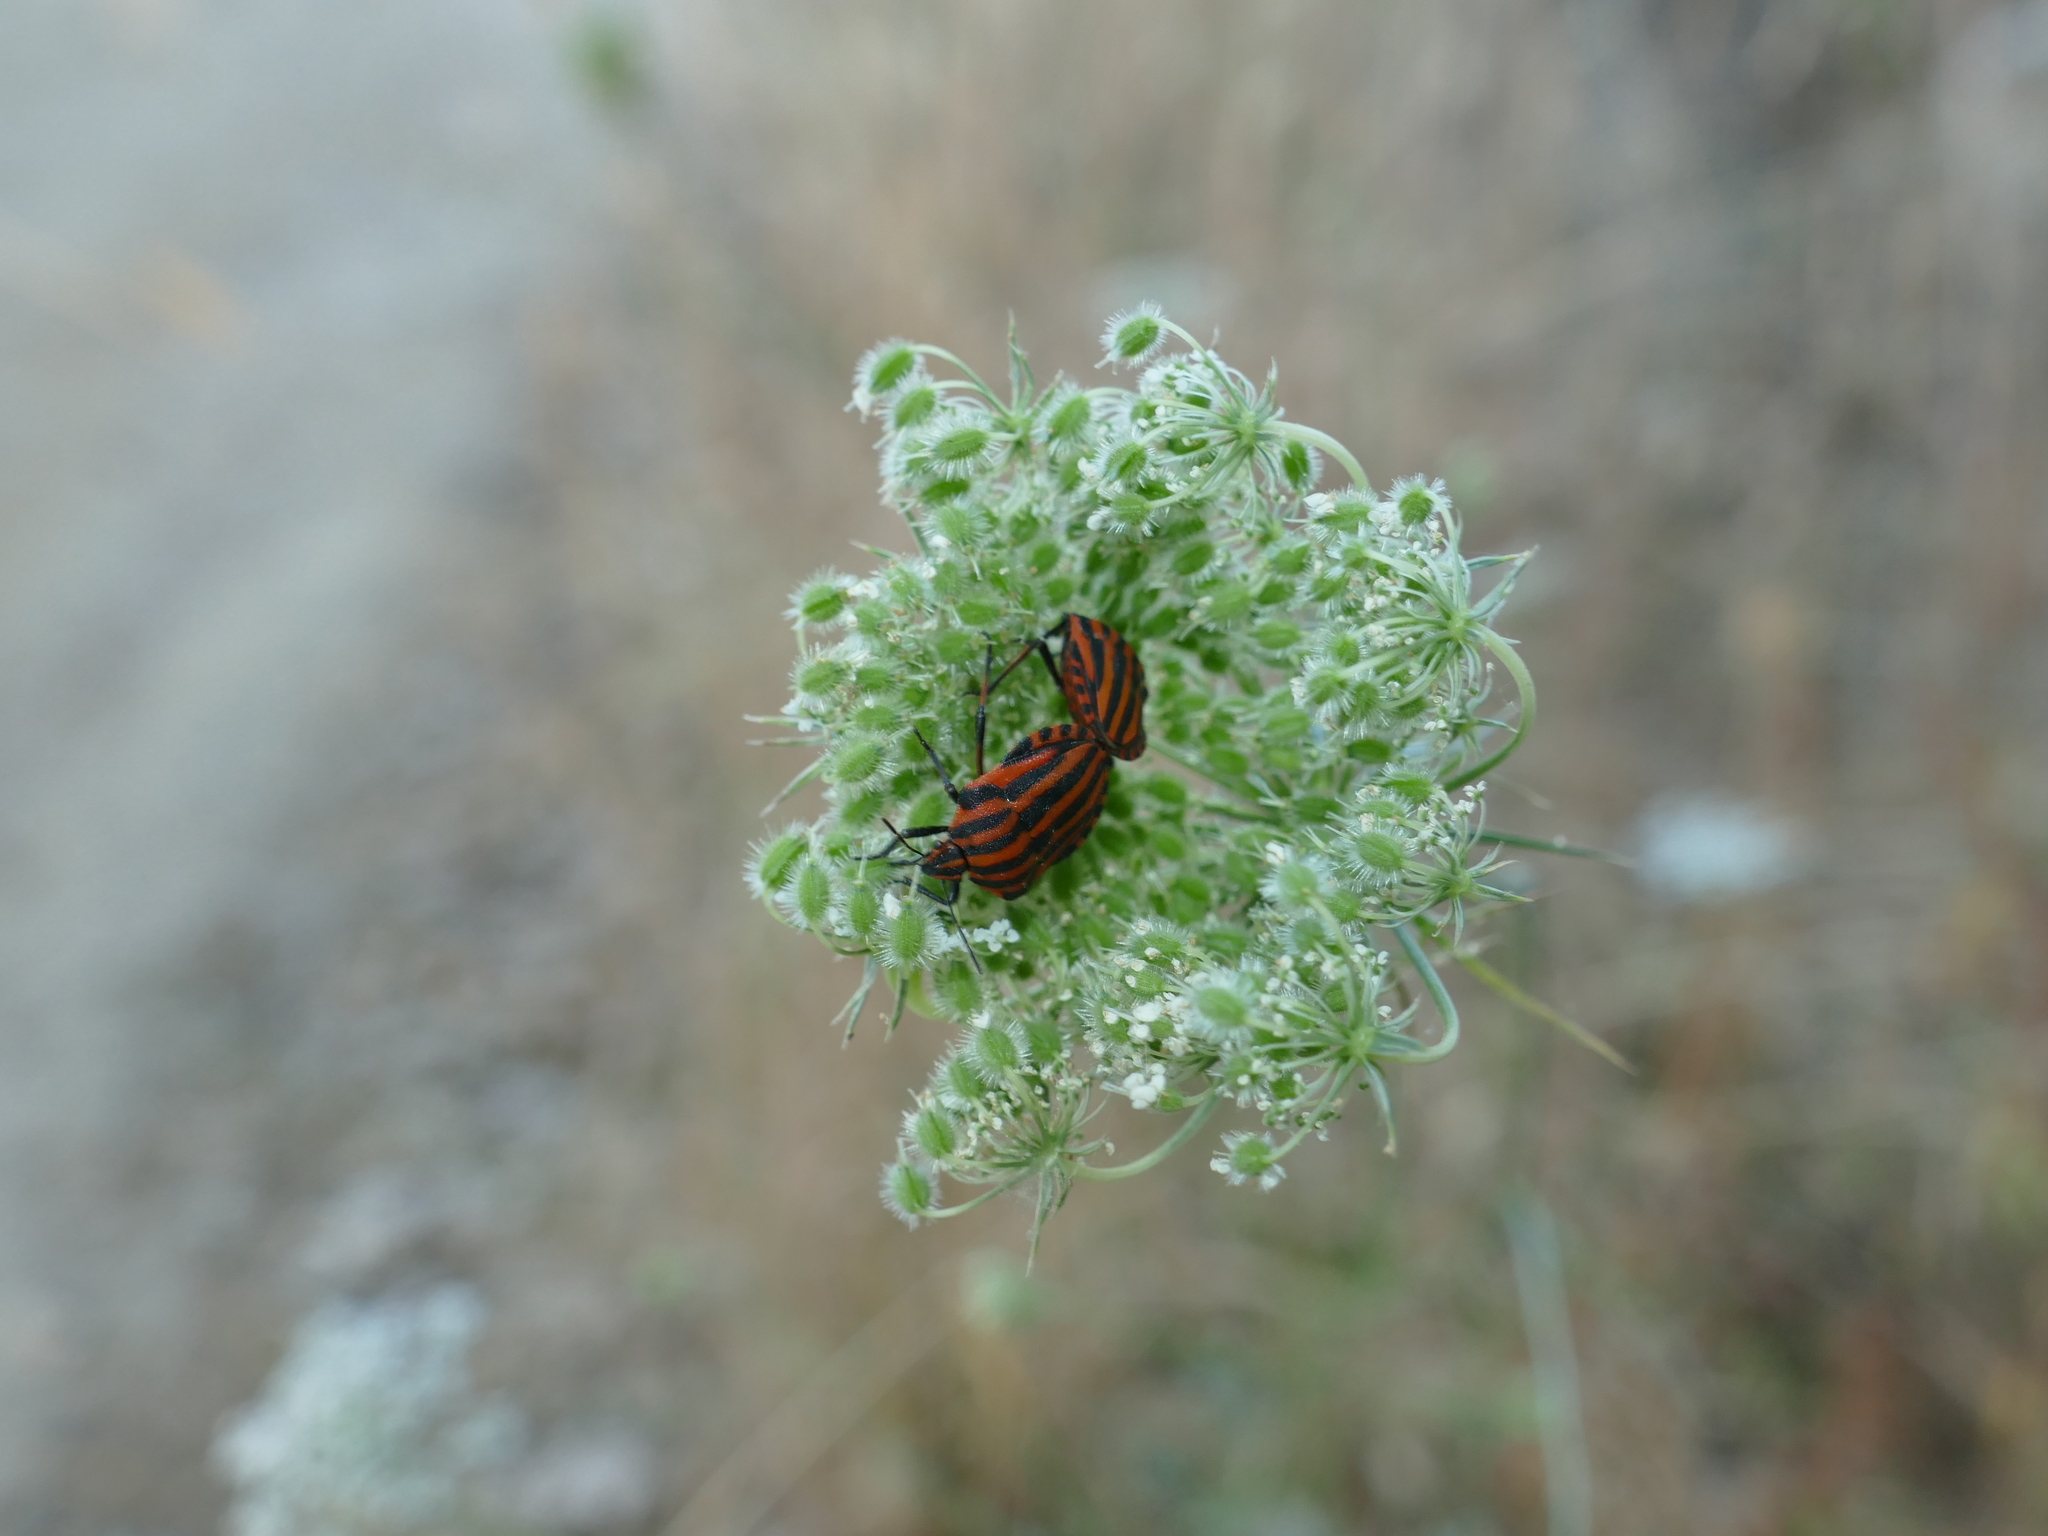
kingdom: Animalia
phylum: Arthropoda
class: Insecta
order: Hemiptera
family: Pentatomidae
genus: Graphosoma
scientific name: Graphosoma italicum
